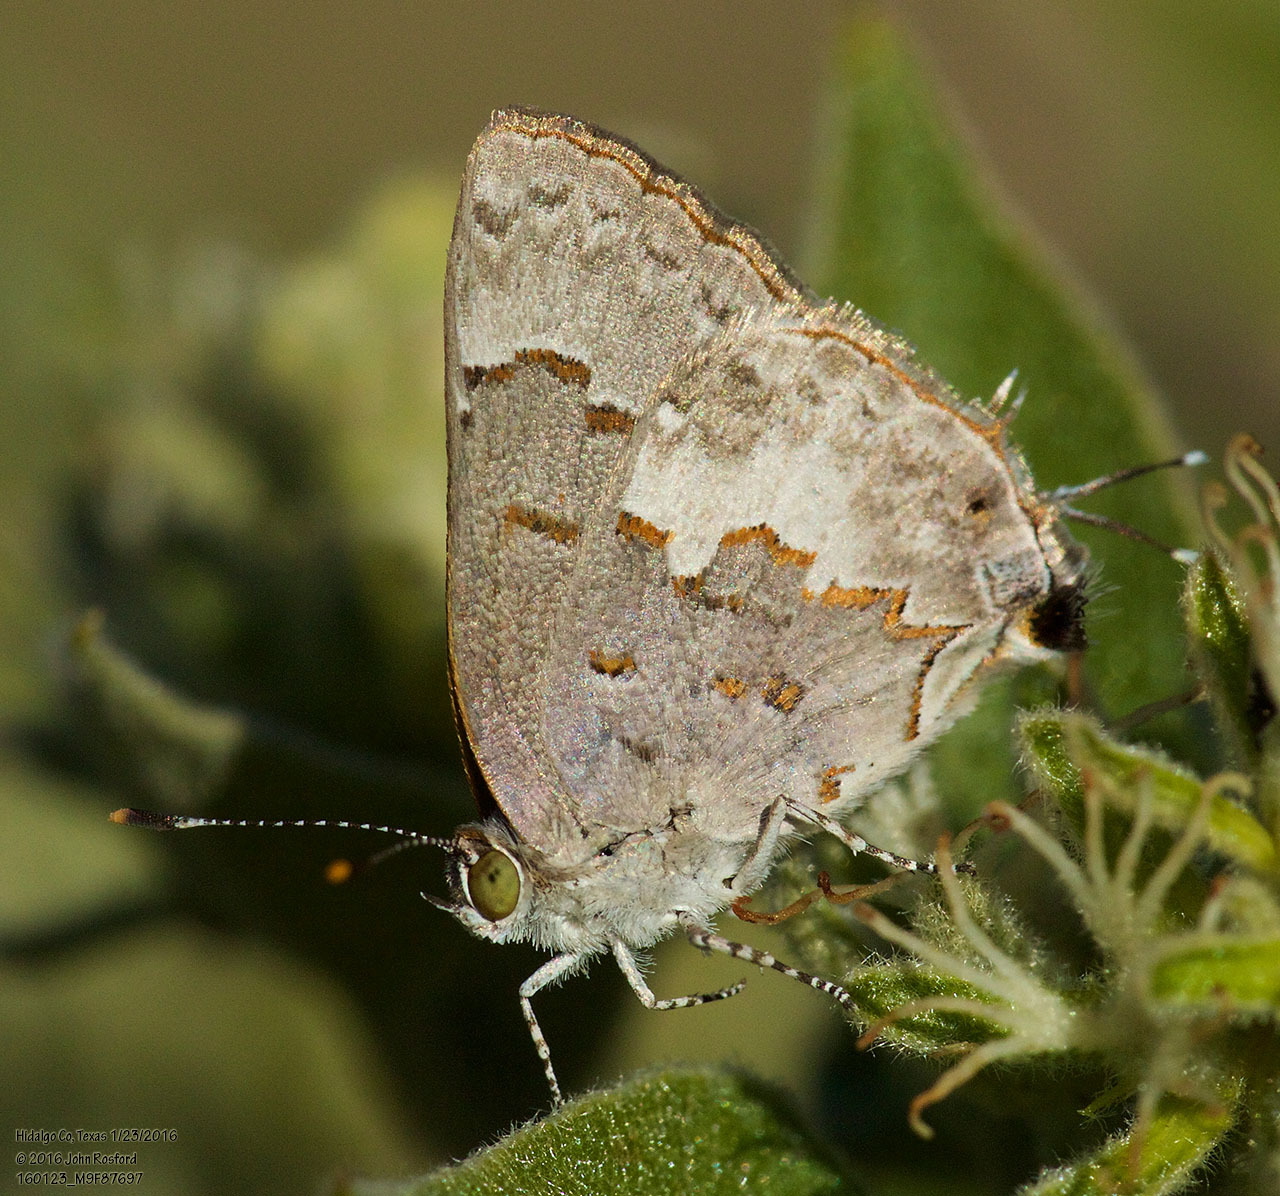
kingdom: Animalia
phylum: Arthropoda
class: Insecta
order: Lepidoptera
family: Lycaenidae
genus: Ministrymon
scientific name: Ministrymon clytie
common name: Clytie ministreak
